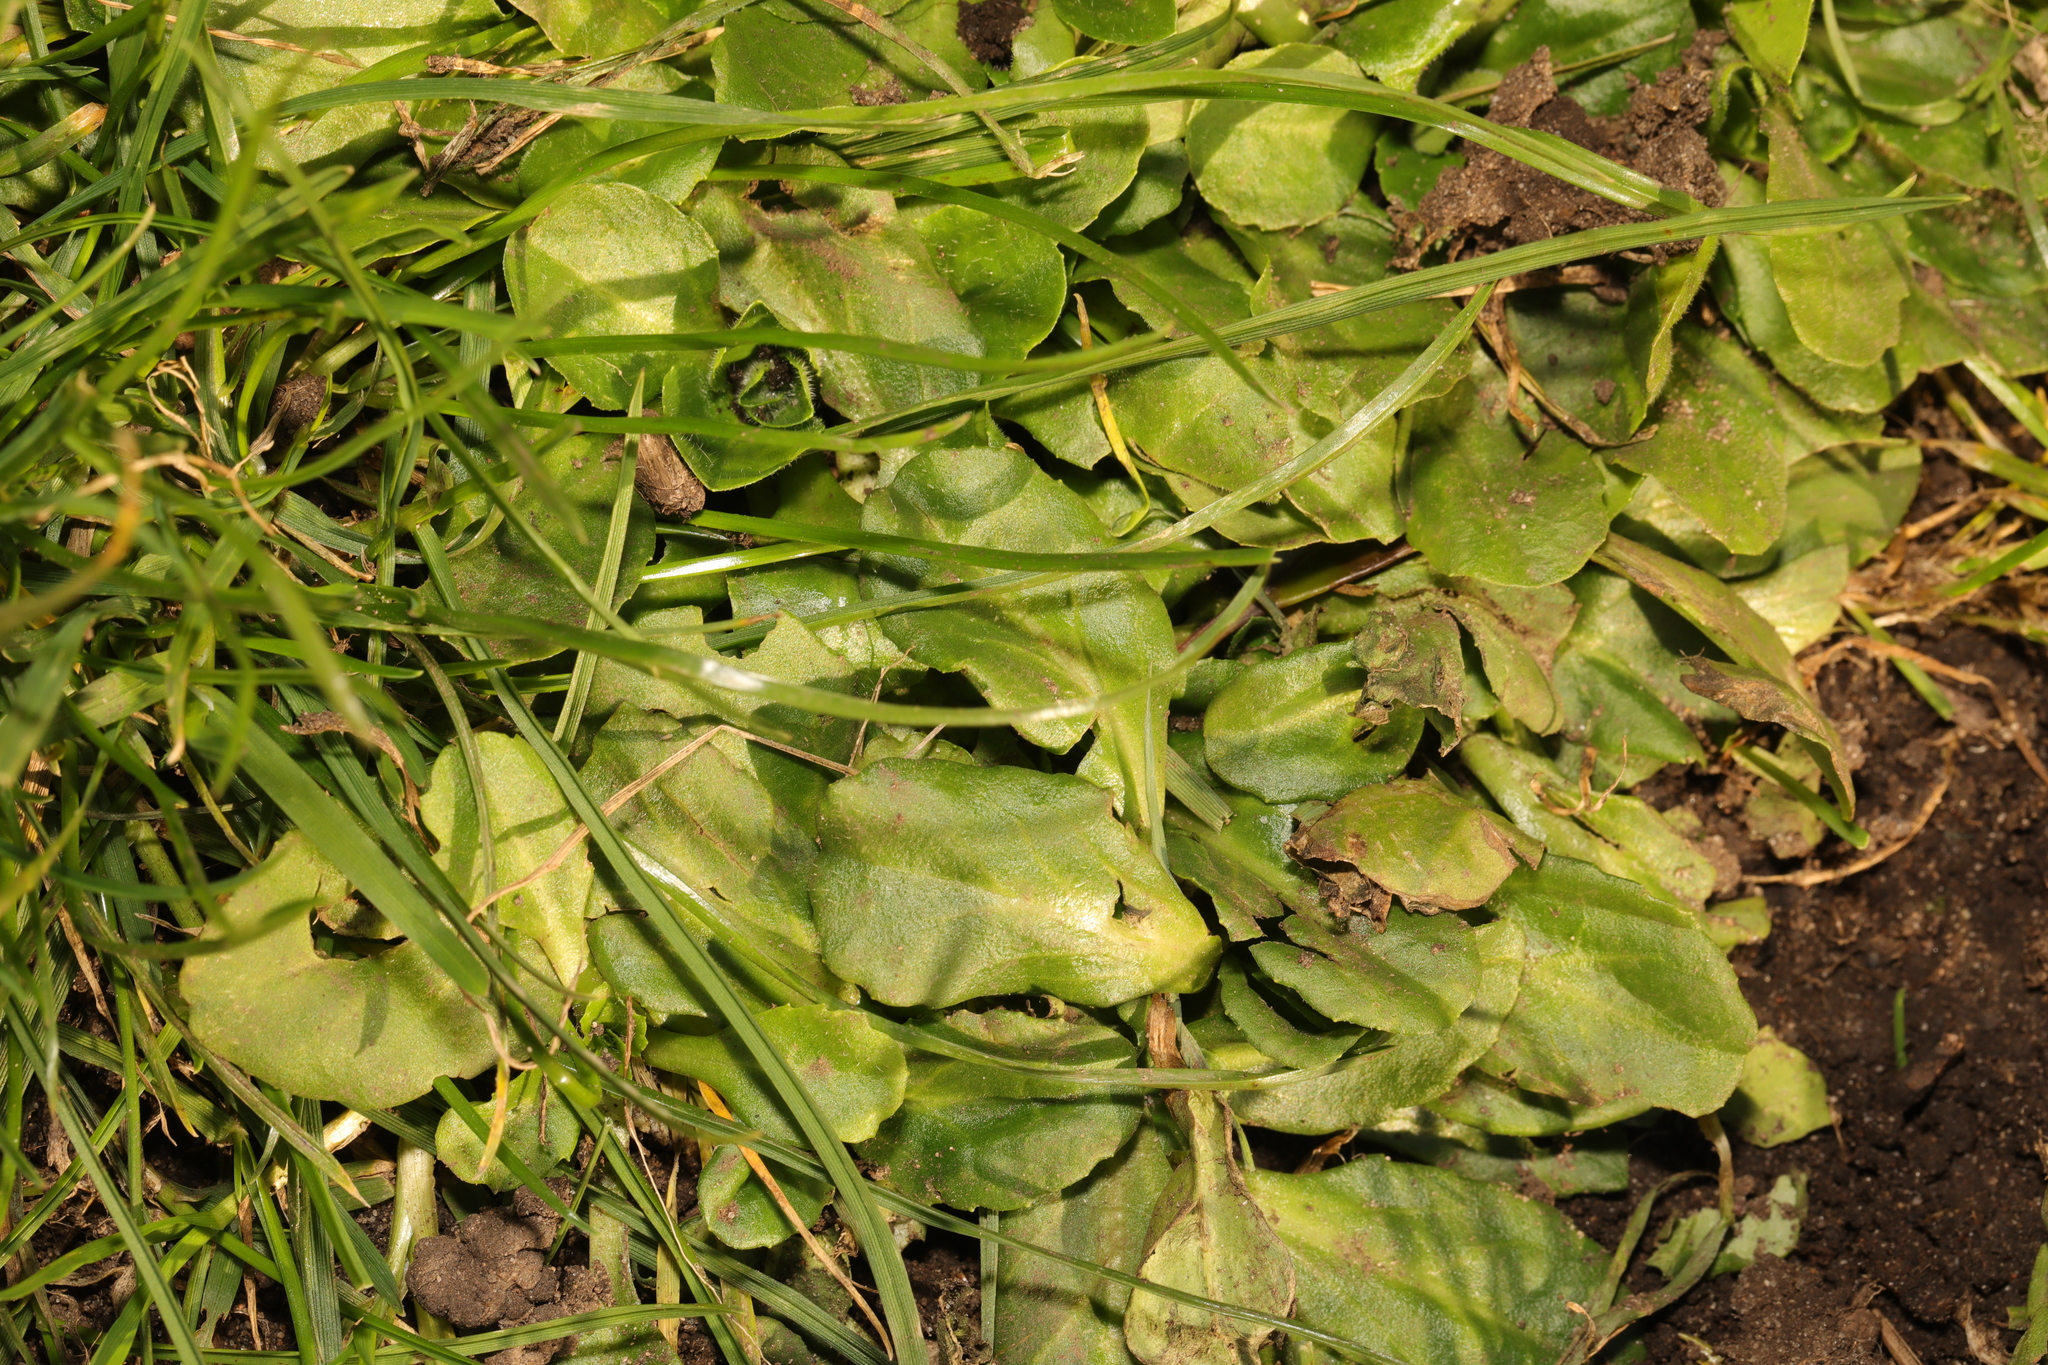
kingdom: Plantae
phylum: Tracheophyta
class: Magnoliopsida
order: Asterales
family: Asteraceae
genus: Bellis
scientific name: Bellis perennis
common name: Lawndaisy
